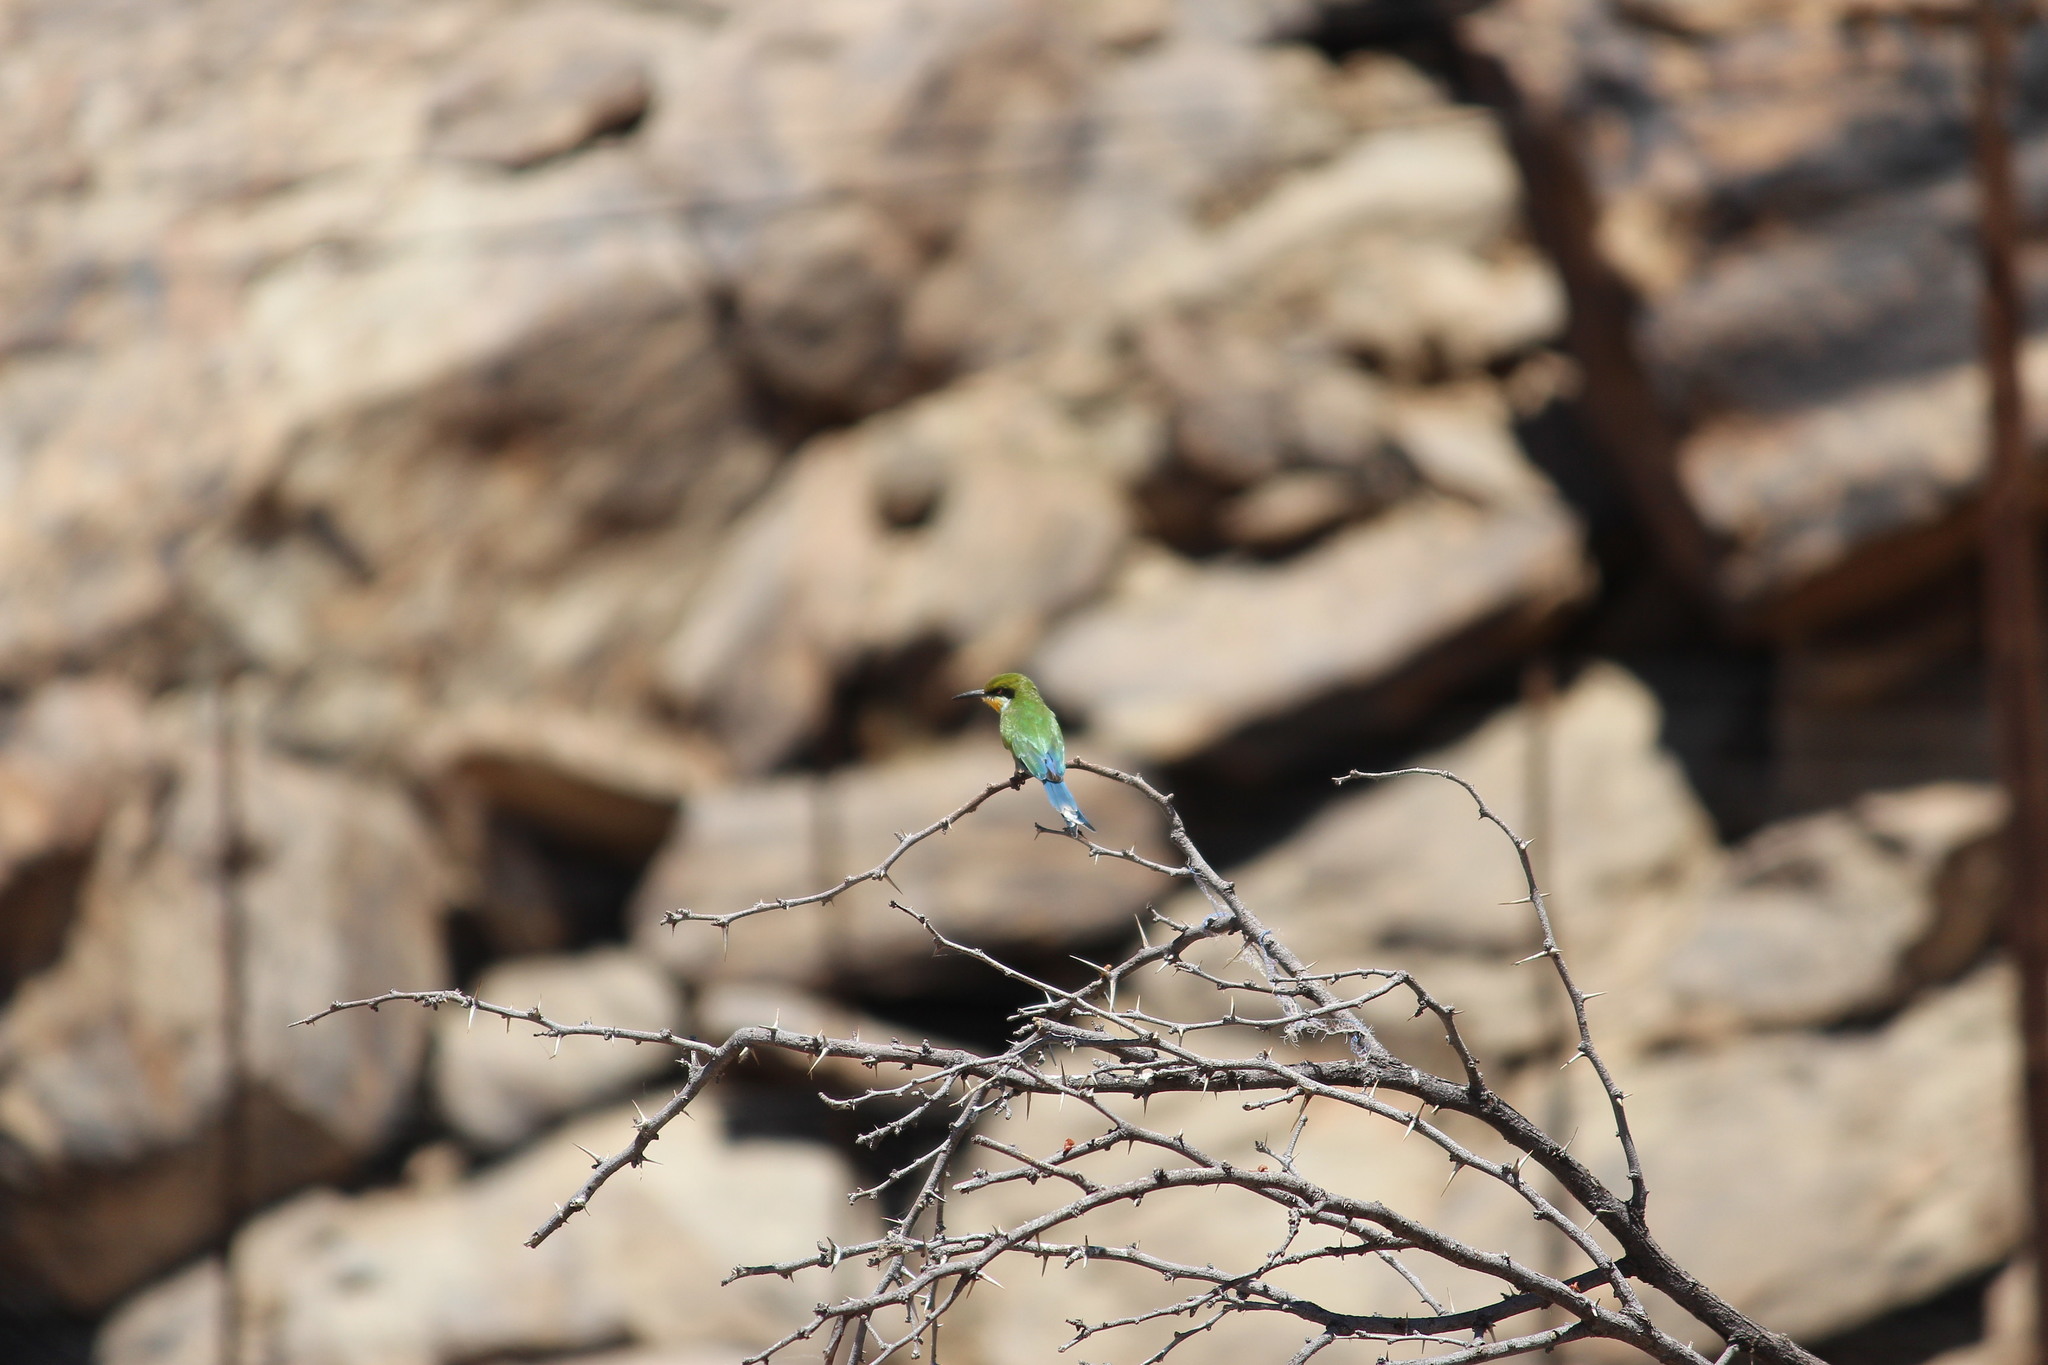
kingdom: Animalia
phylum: Chordata
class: Aves
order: Coraciiformes
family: Meropidae
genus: Merops
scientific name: Merops hirundineus
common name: Swallow-tailed bee-eater
